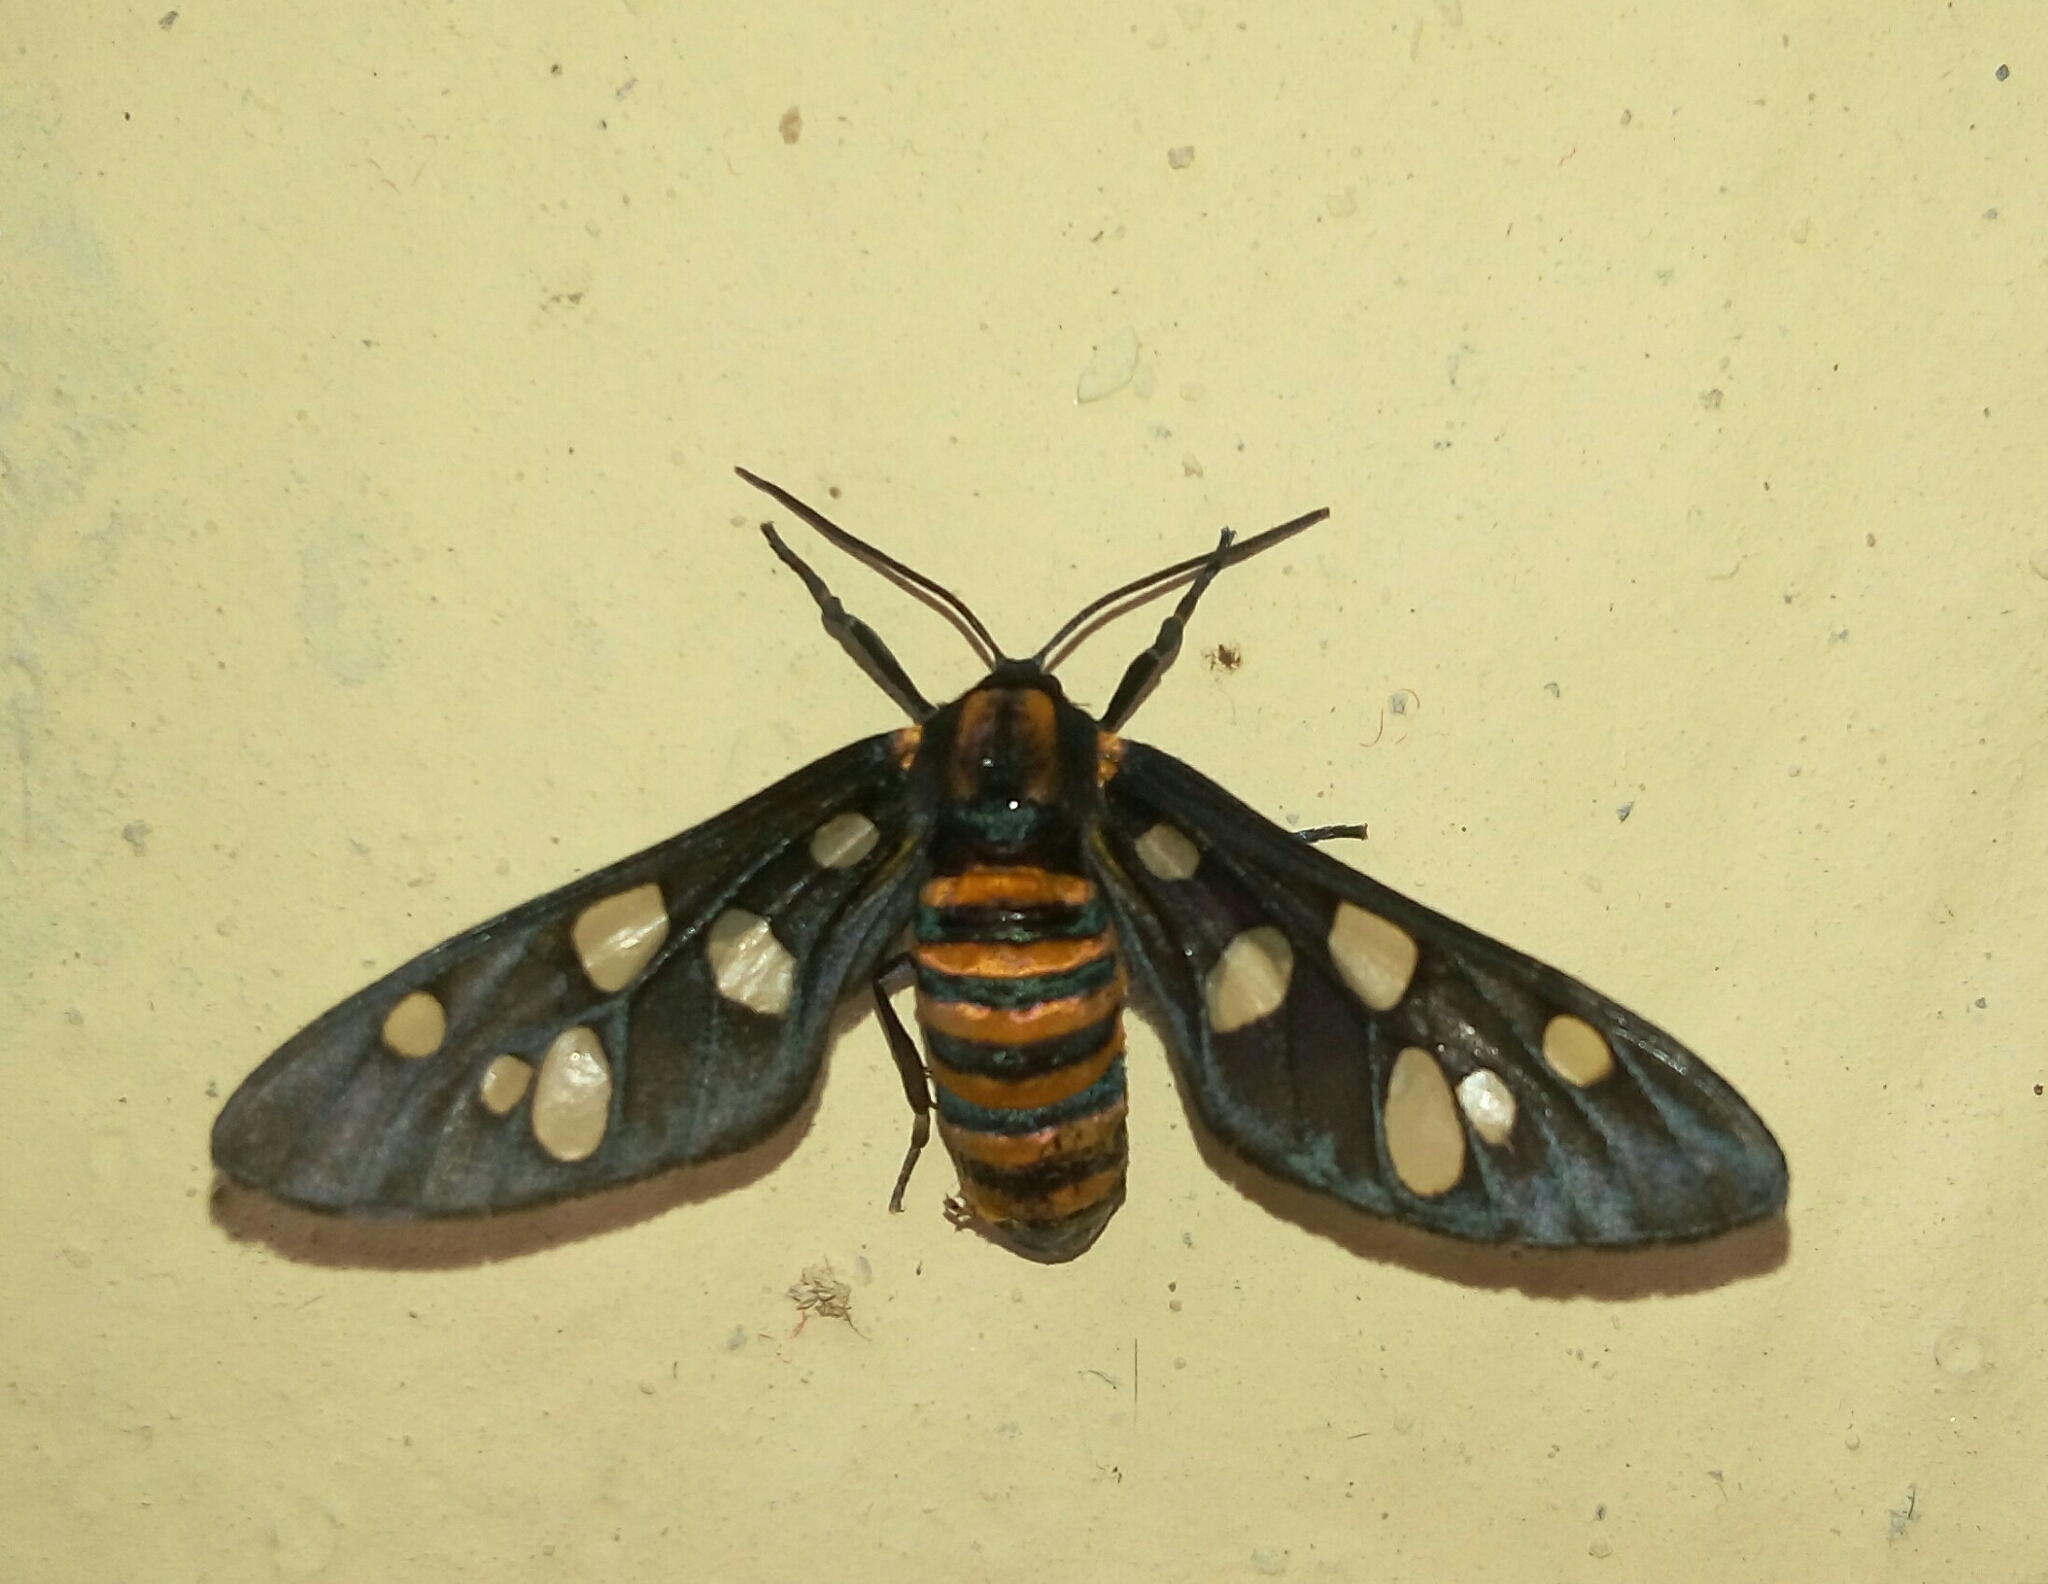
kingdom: Animalia
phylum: Arthropoda
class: Insecta
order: Lepidoptera
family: Erebidae
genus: Amata
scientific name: Amata passalis
